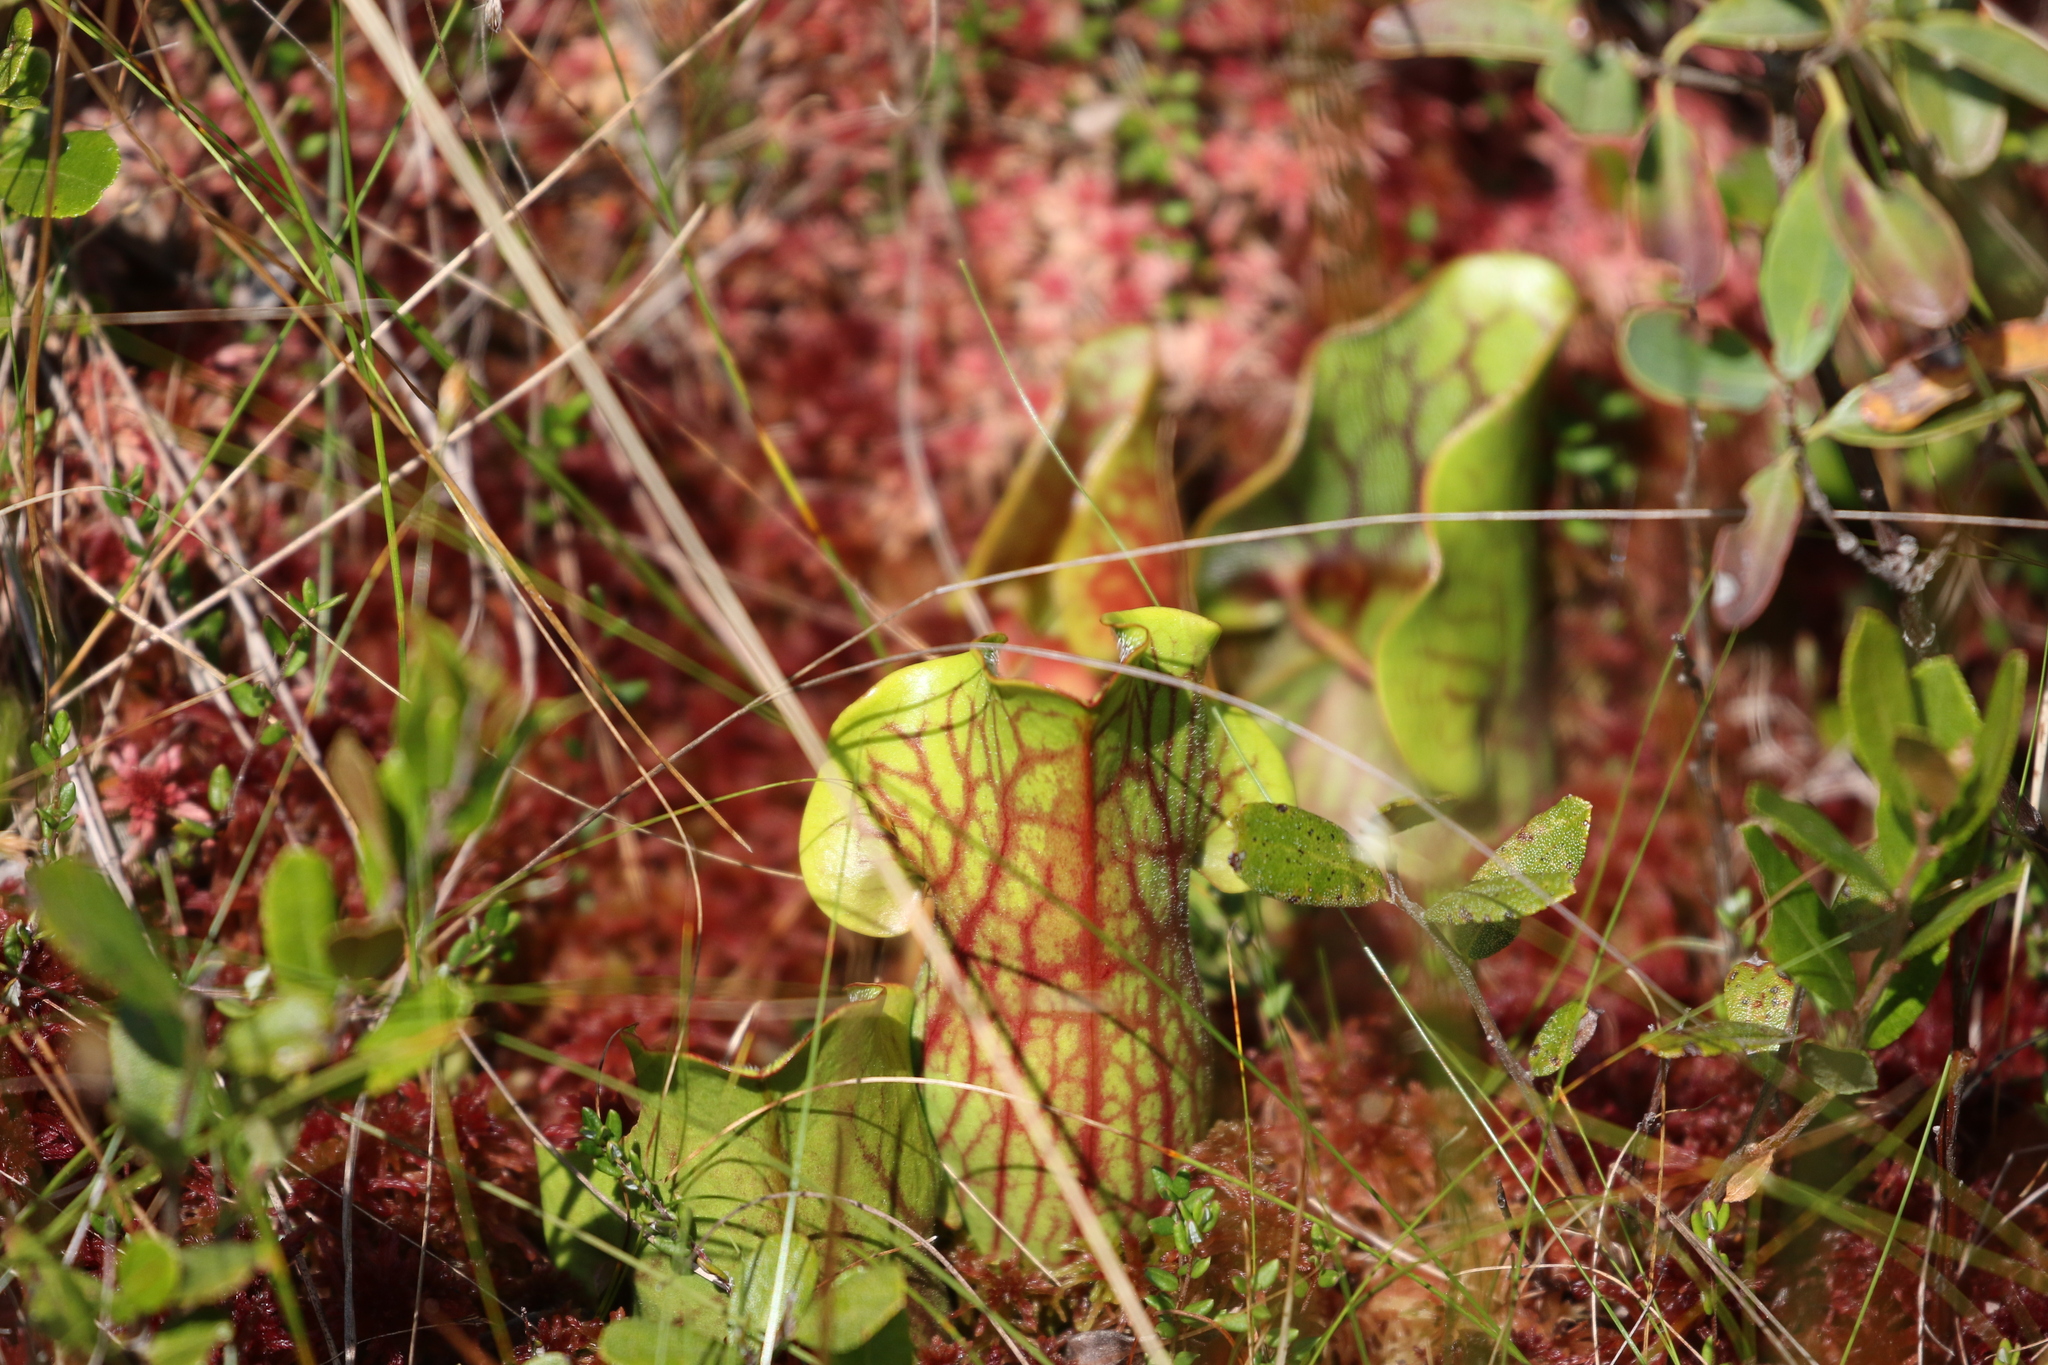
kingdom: Plantae
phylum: Tracheophyta
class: Magnoliopsida
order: Ericales
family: Sarraceniaceae
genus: Sarracenia
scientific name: Sarracenia purpurea
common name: Pitcherplant
